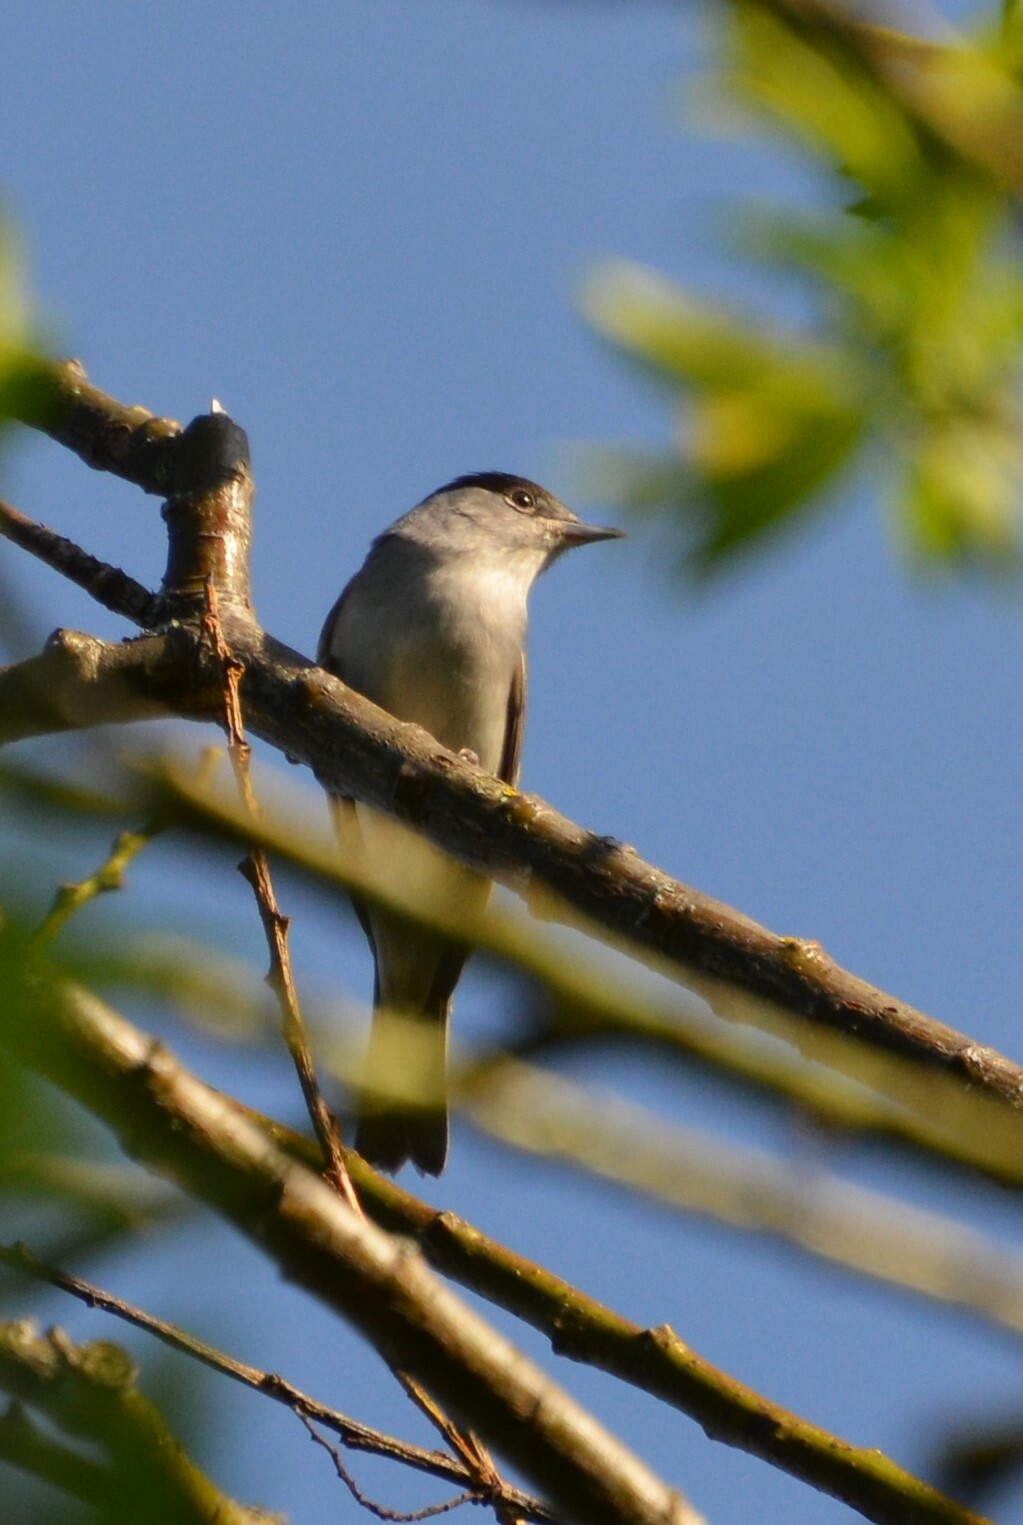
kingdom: Animalia
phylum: Chordata
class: Aves
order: Passeriformes
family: Sylviidae
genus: Sylvia
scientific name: Sylvia atricapilla
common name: Eurasian blackcap
